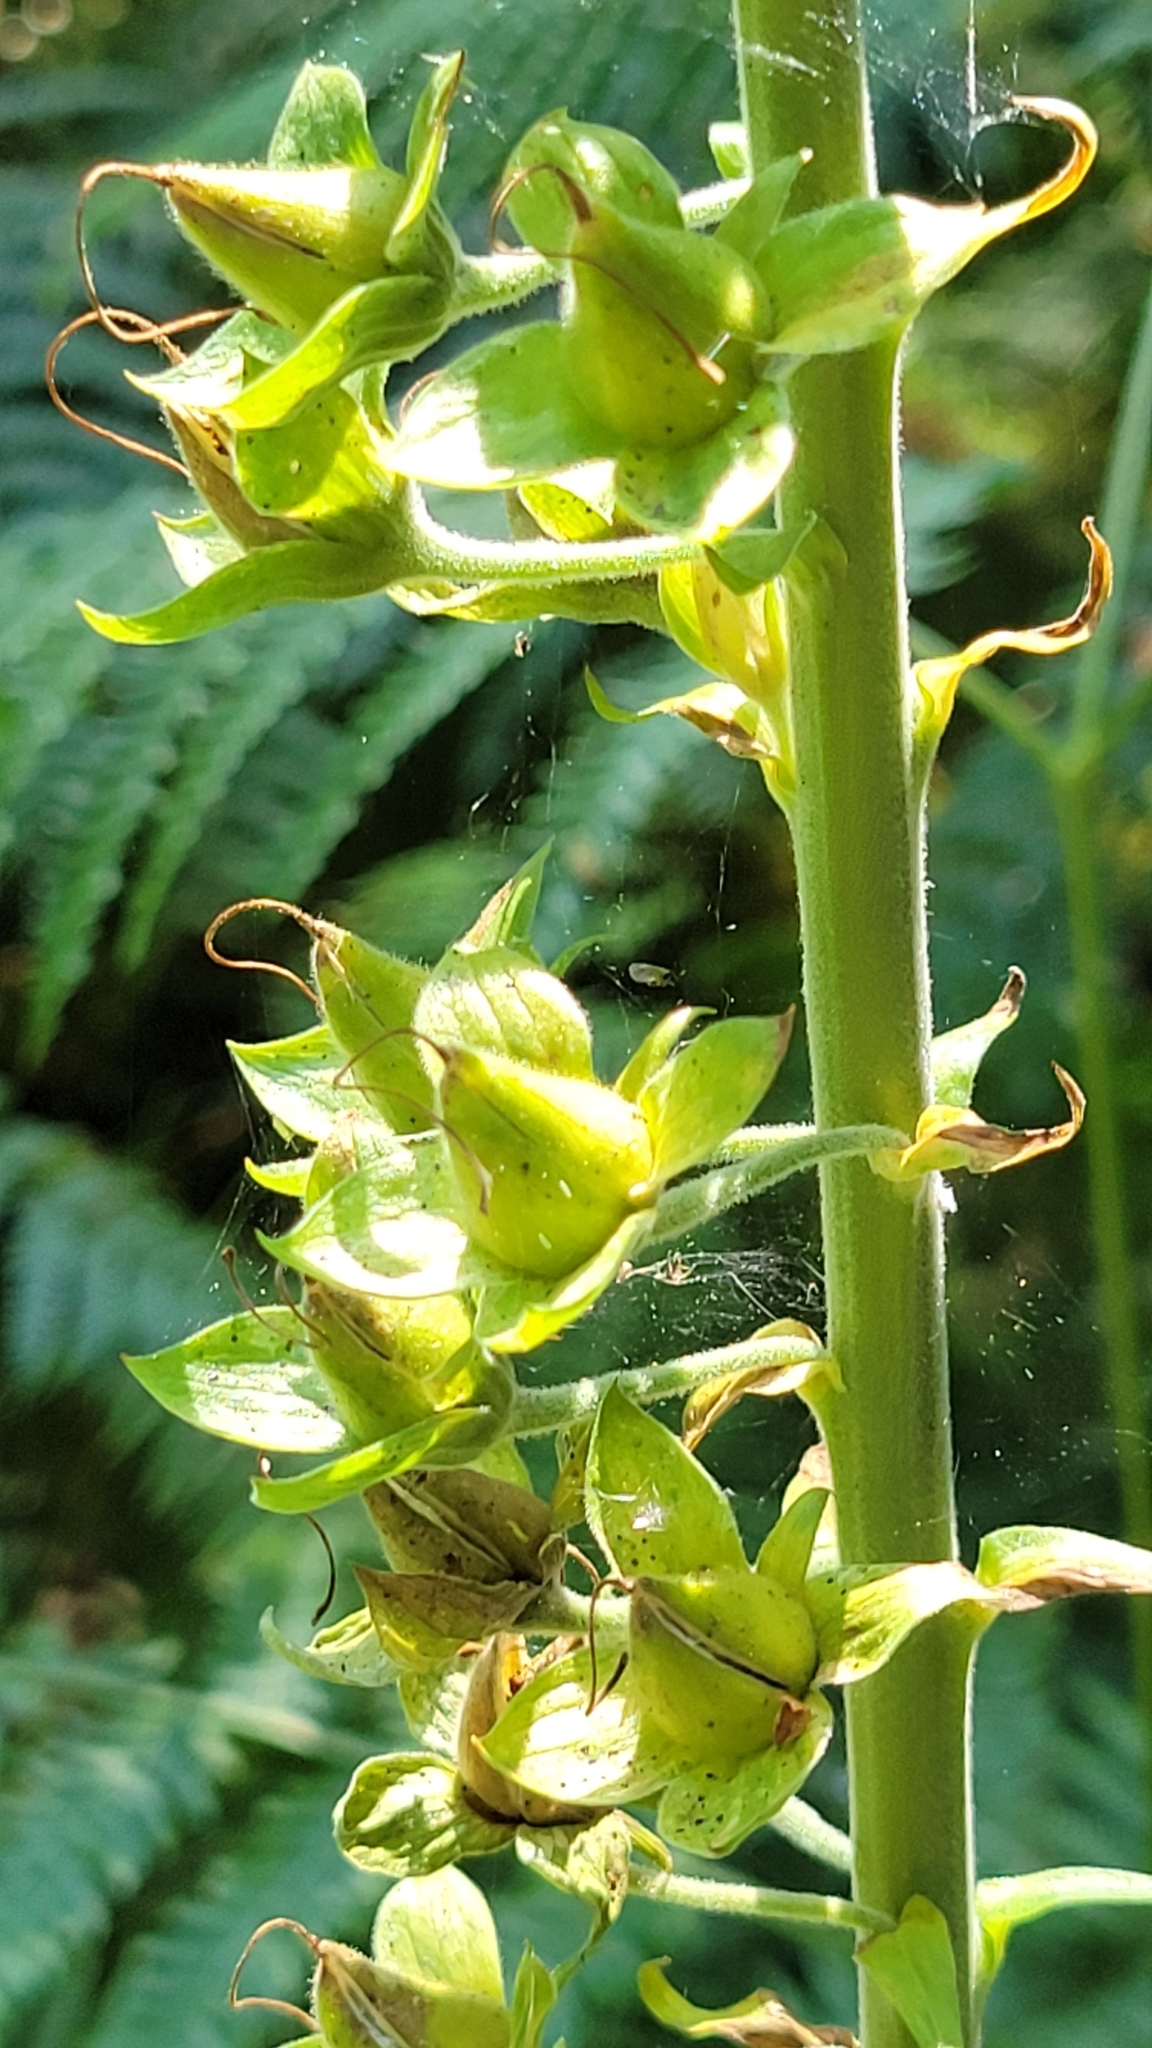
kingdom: Plantae
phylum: Tracheophyta
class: Magnoliopsida
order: Lamiales
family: Plantaginaceae
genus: Digitalis
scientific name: Digitalis purpurea
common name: Foxglove
